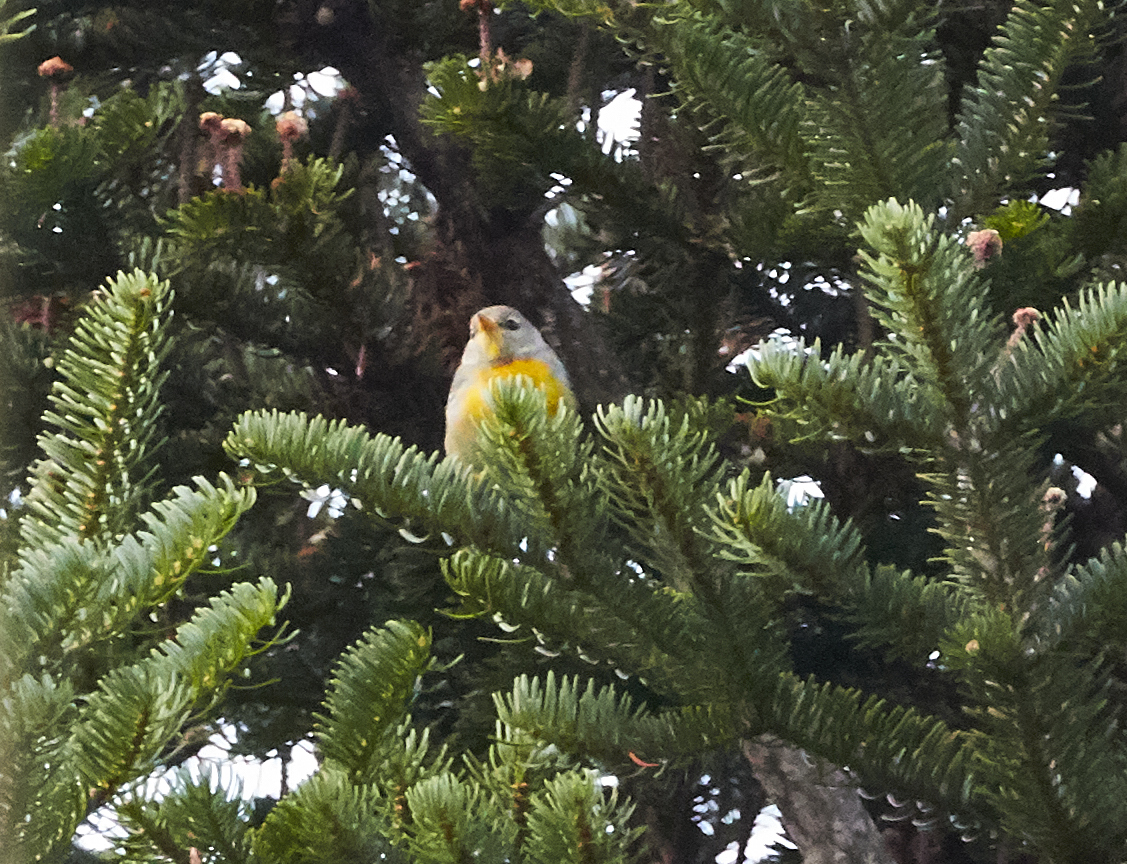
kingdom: Animalia
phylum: Chordata
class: Aves
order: Passeriformes
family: Parulidae
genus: Setophaga
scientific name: Setophaga americana
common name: Northern parula
